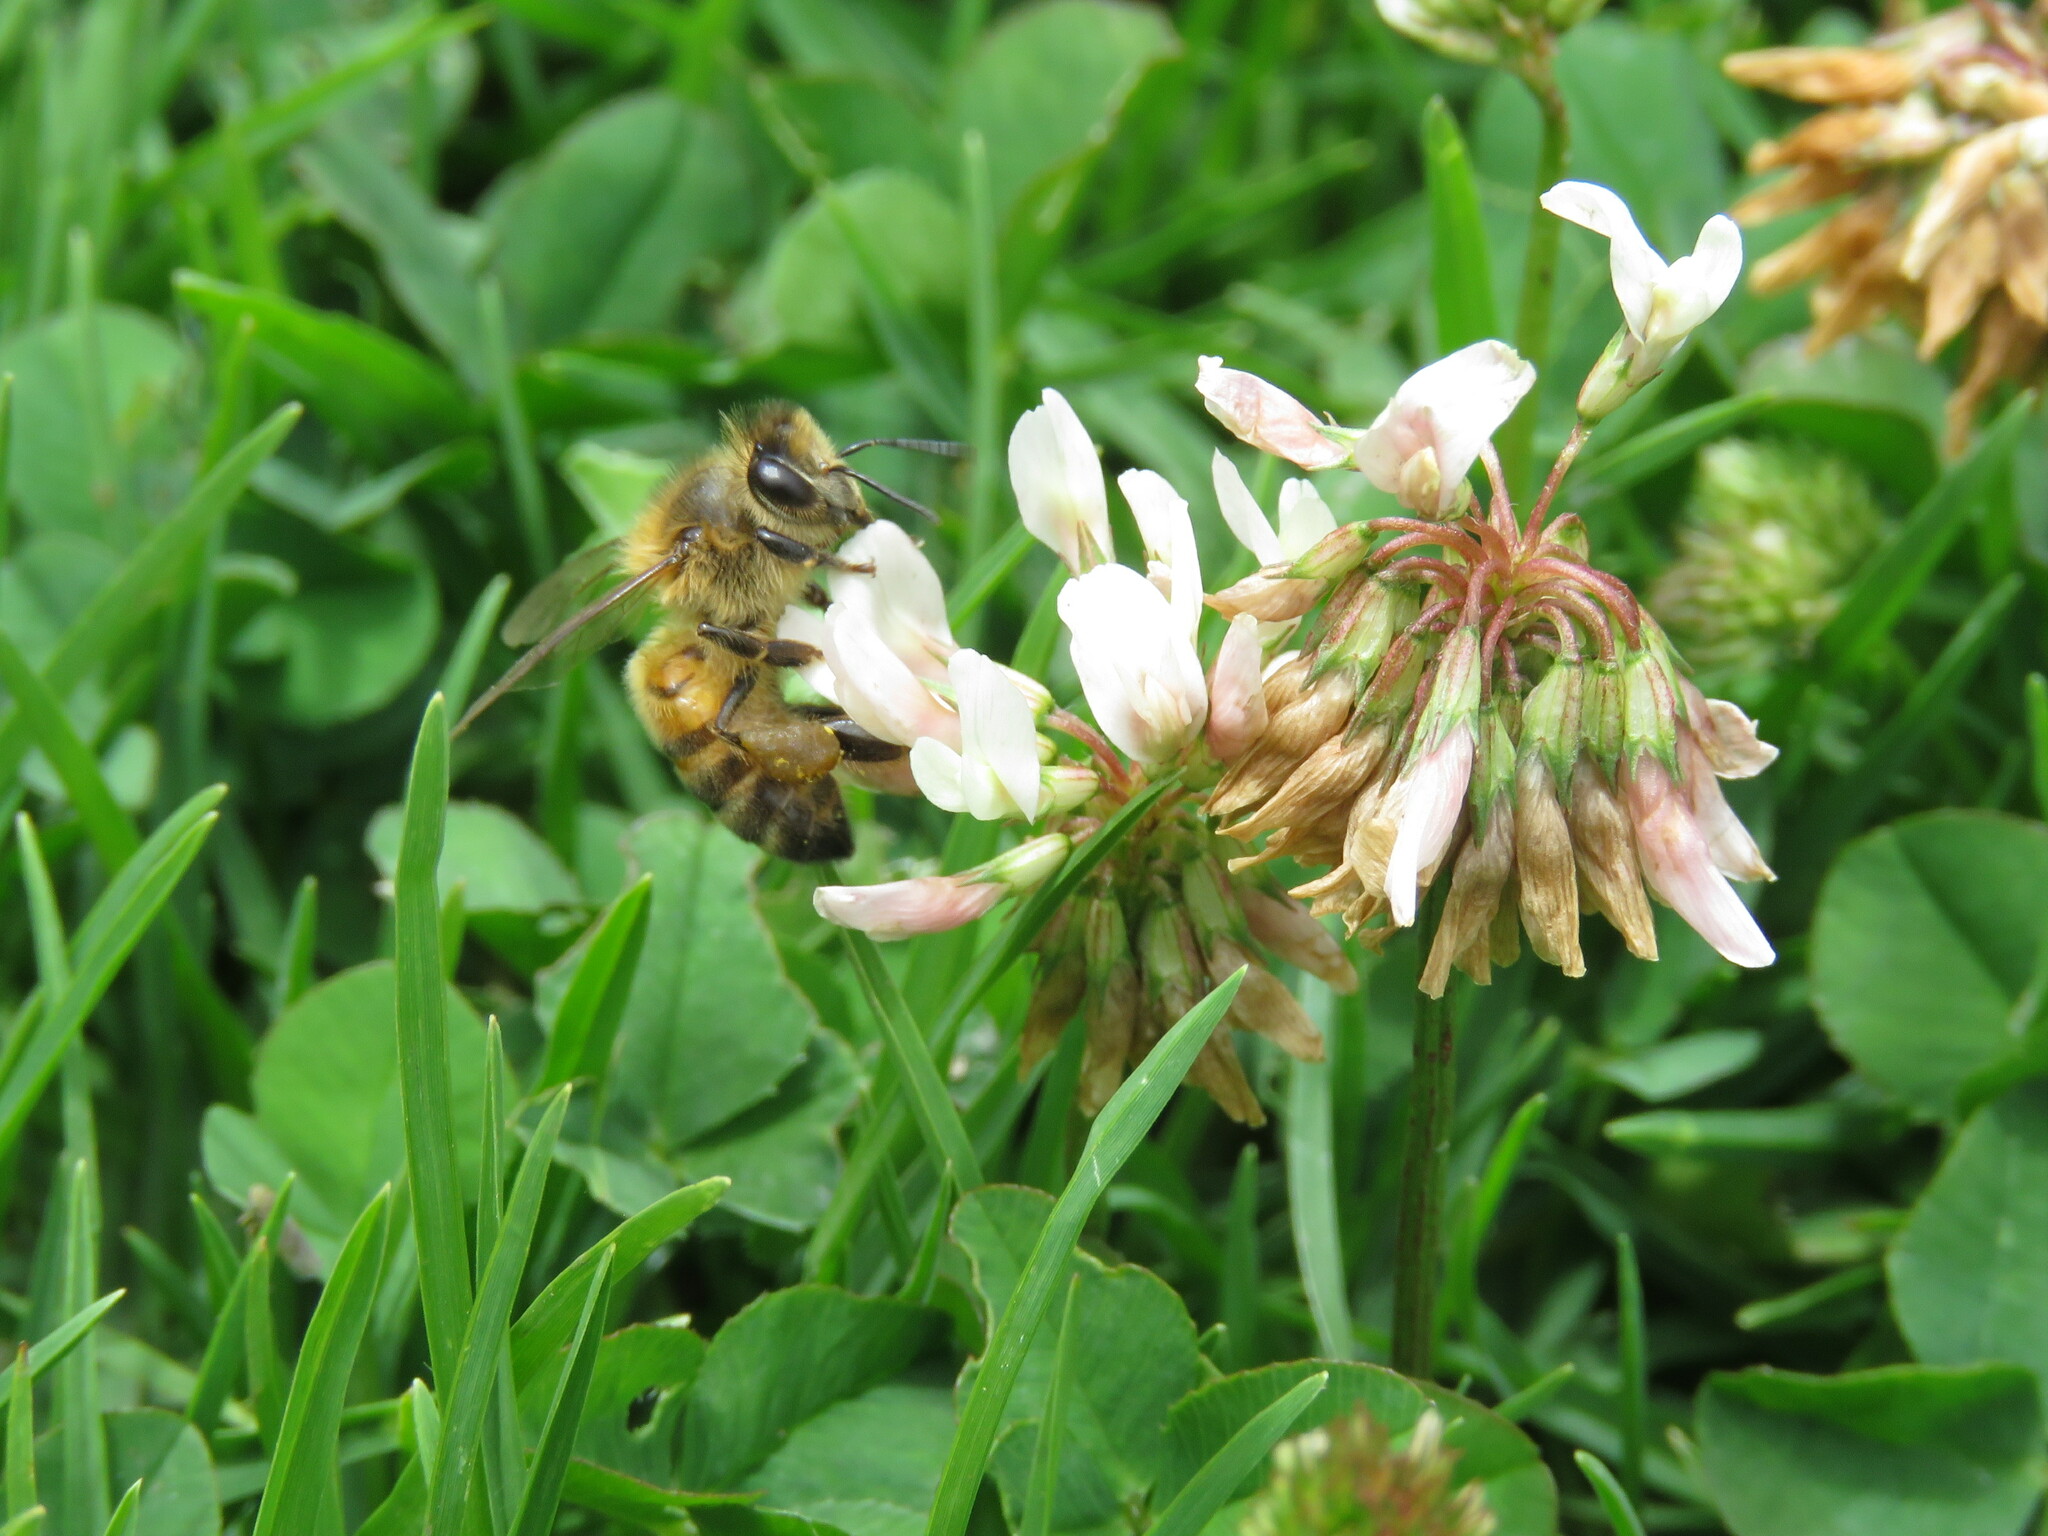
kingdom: Animalia
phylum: Arthropoda
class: Insecta
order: Hymenoptera
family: Apidae
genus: Apis
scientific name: Apis mellifera
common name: Honey bee
